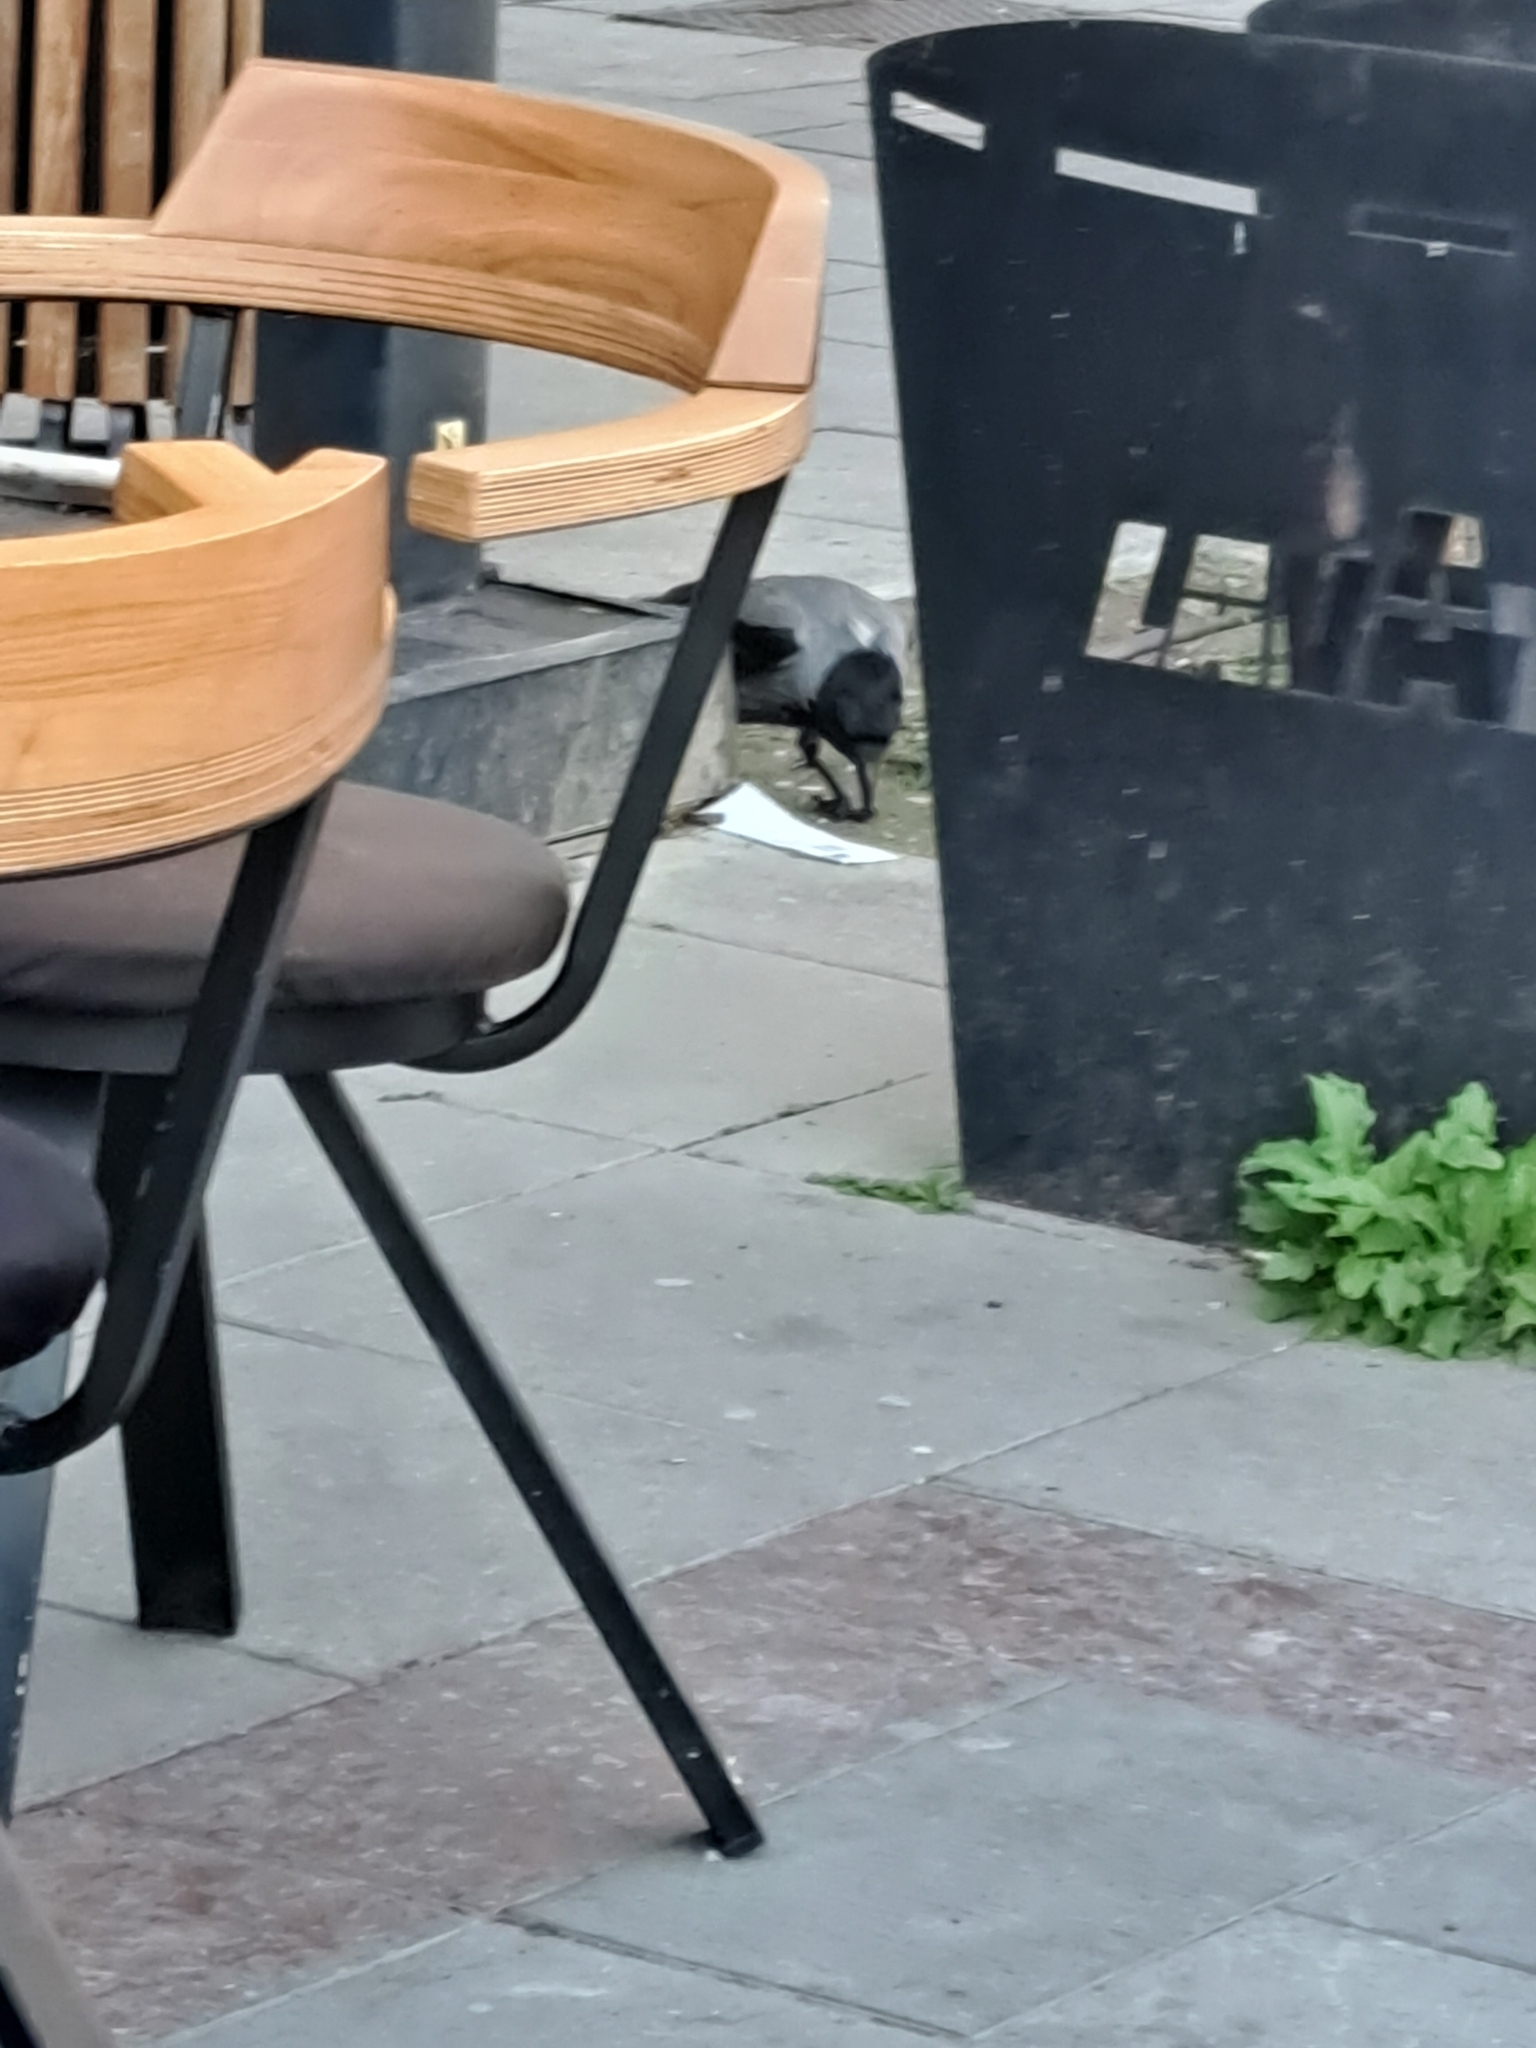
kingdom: Animalia
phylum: Chordata
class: Aves
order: Passeriformes
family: Corvidae
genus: Corvus
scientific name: Corvus cornix
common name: Hooded crow
